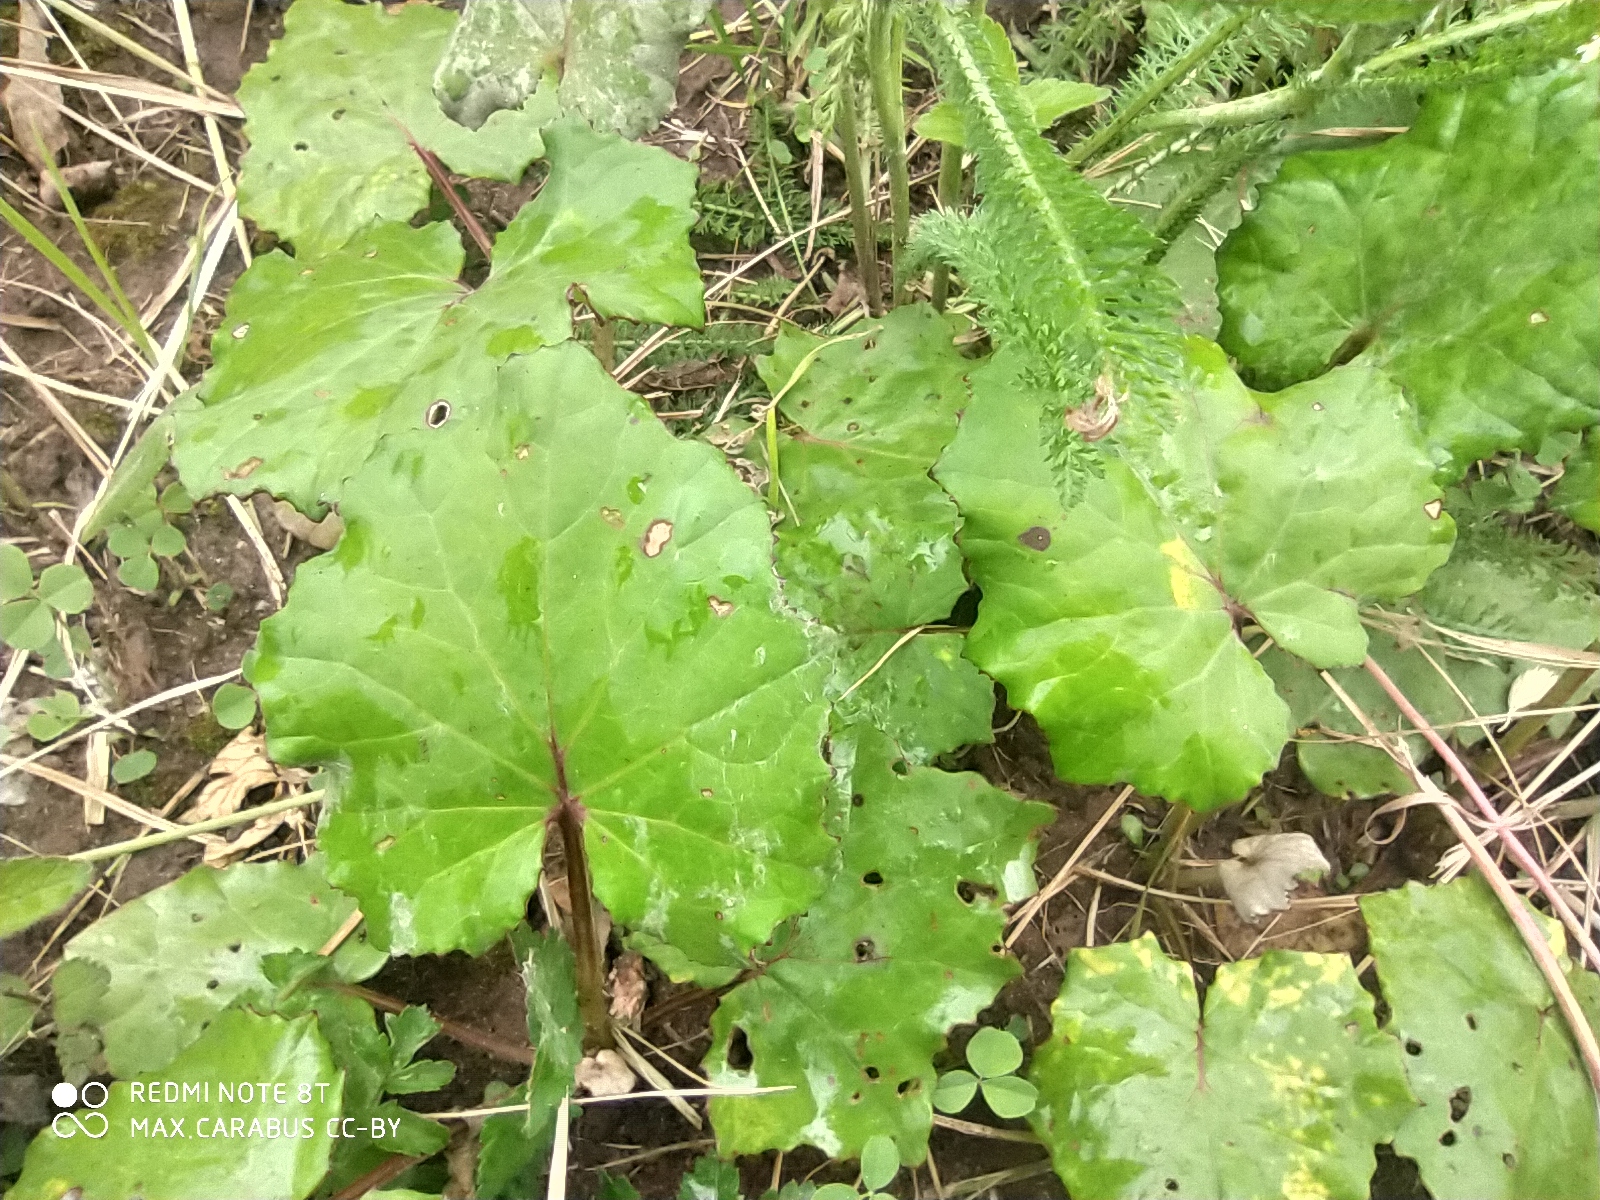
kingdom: Plantae
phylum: Tracheophyta
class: Magnoliopsida
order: Asterales
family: Asteraceae
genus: Tussilago
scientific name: Tussilago farfara
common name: Coltsfoot
